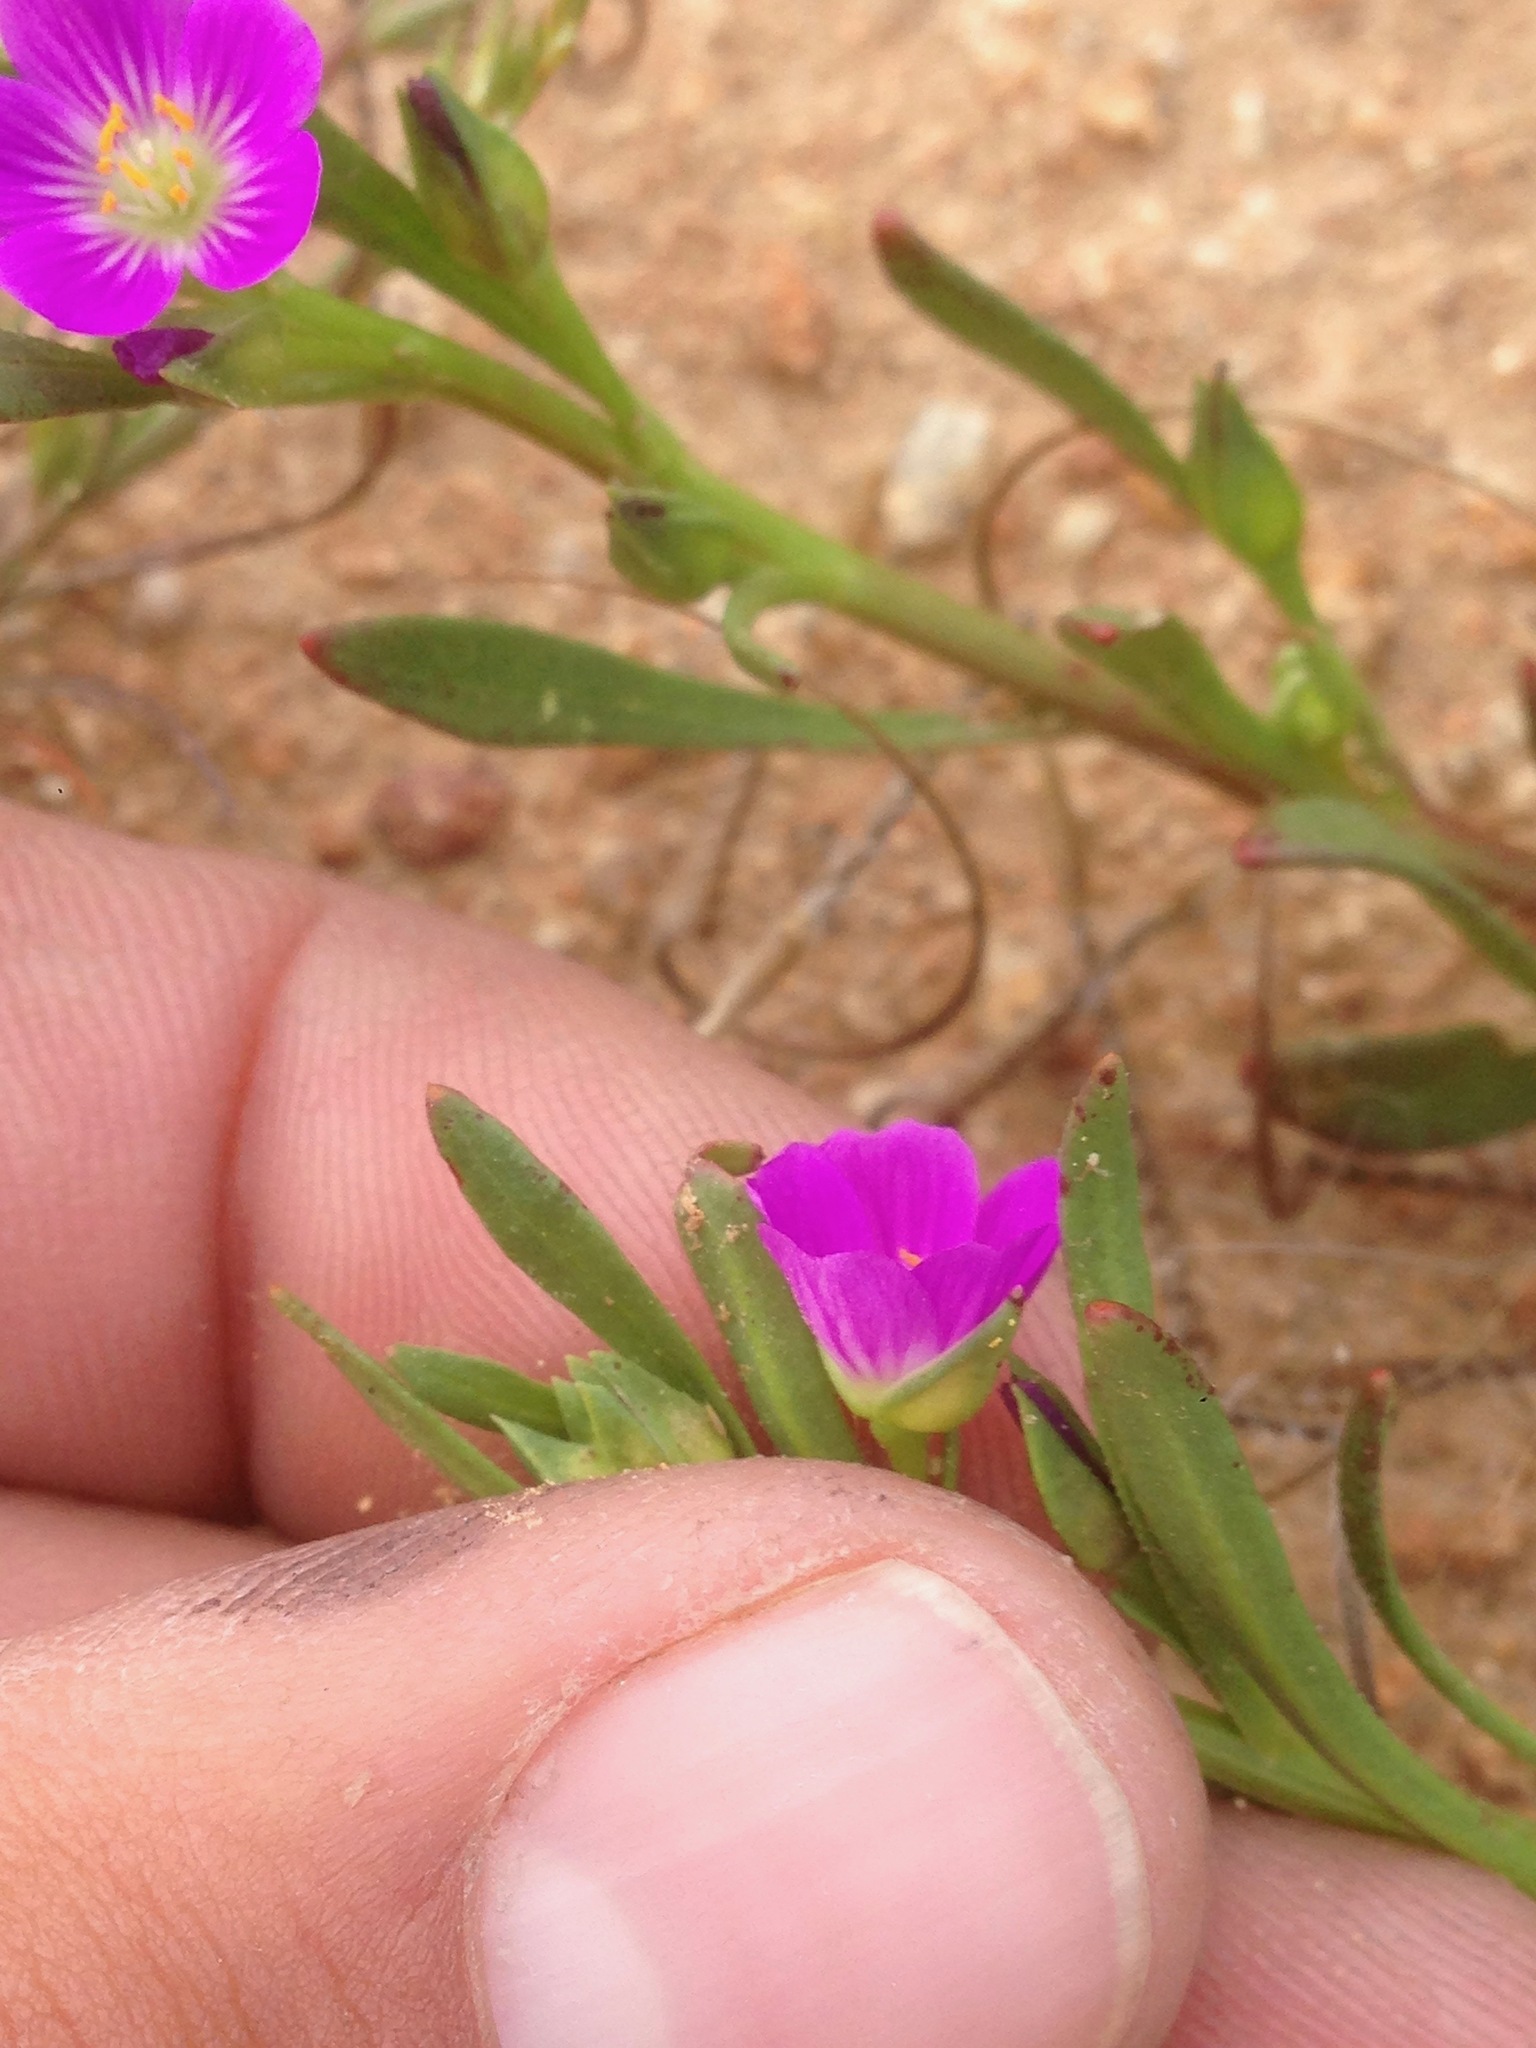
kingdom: Plantae
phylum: Tracheophyta
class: Magnoliopsida
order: Caryophyllales
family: Montiaceae
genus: Calandrinia
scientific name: Calandrinia menziesii
